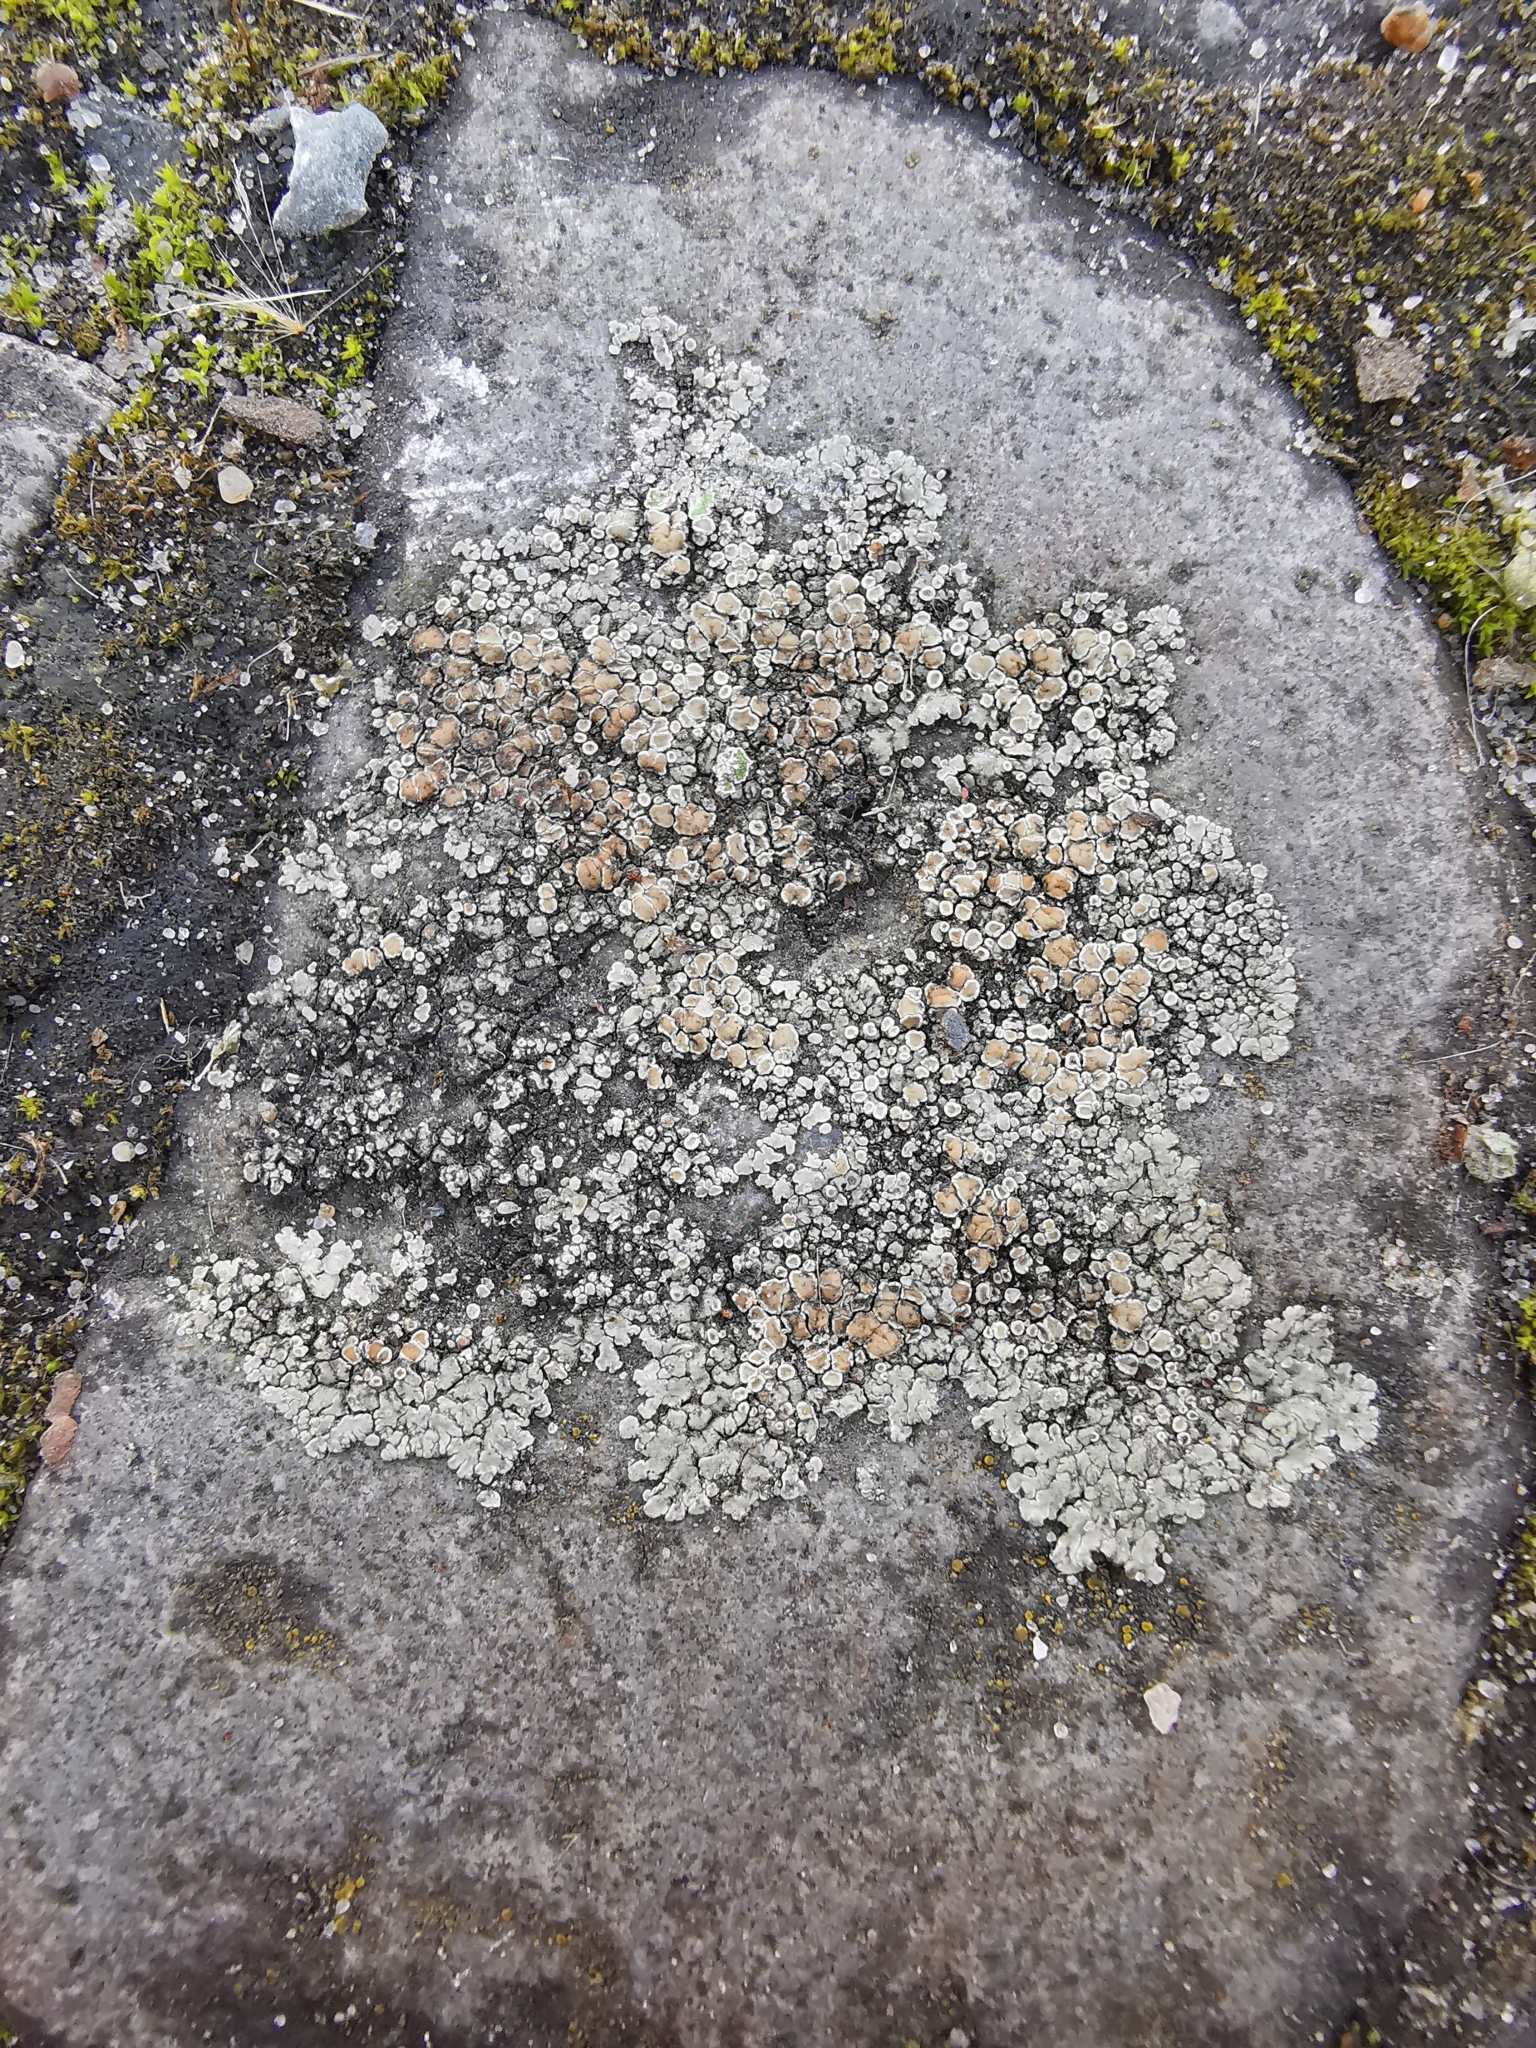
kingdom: Fungi
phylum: Ascomycota
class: Lecanoromycetes
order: Lecanorales
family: Lecanoraceae
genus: Protoparmeliopsis
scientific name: Protoparmeliopsis muralis
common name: Stonewall rim lichen
